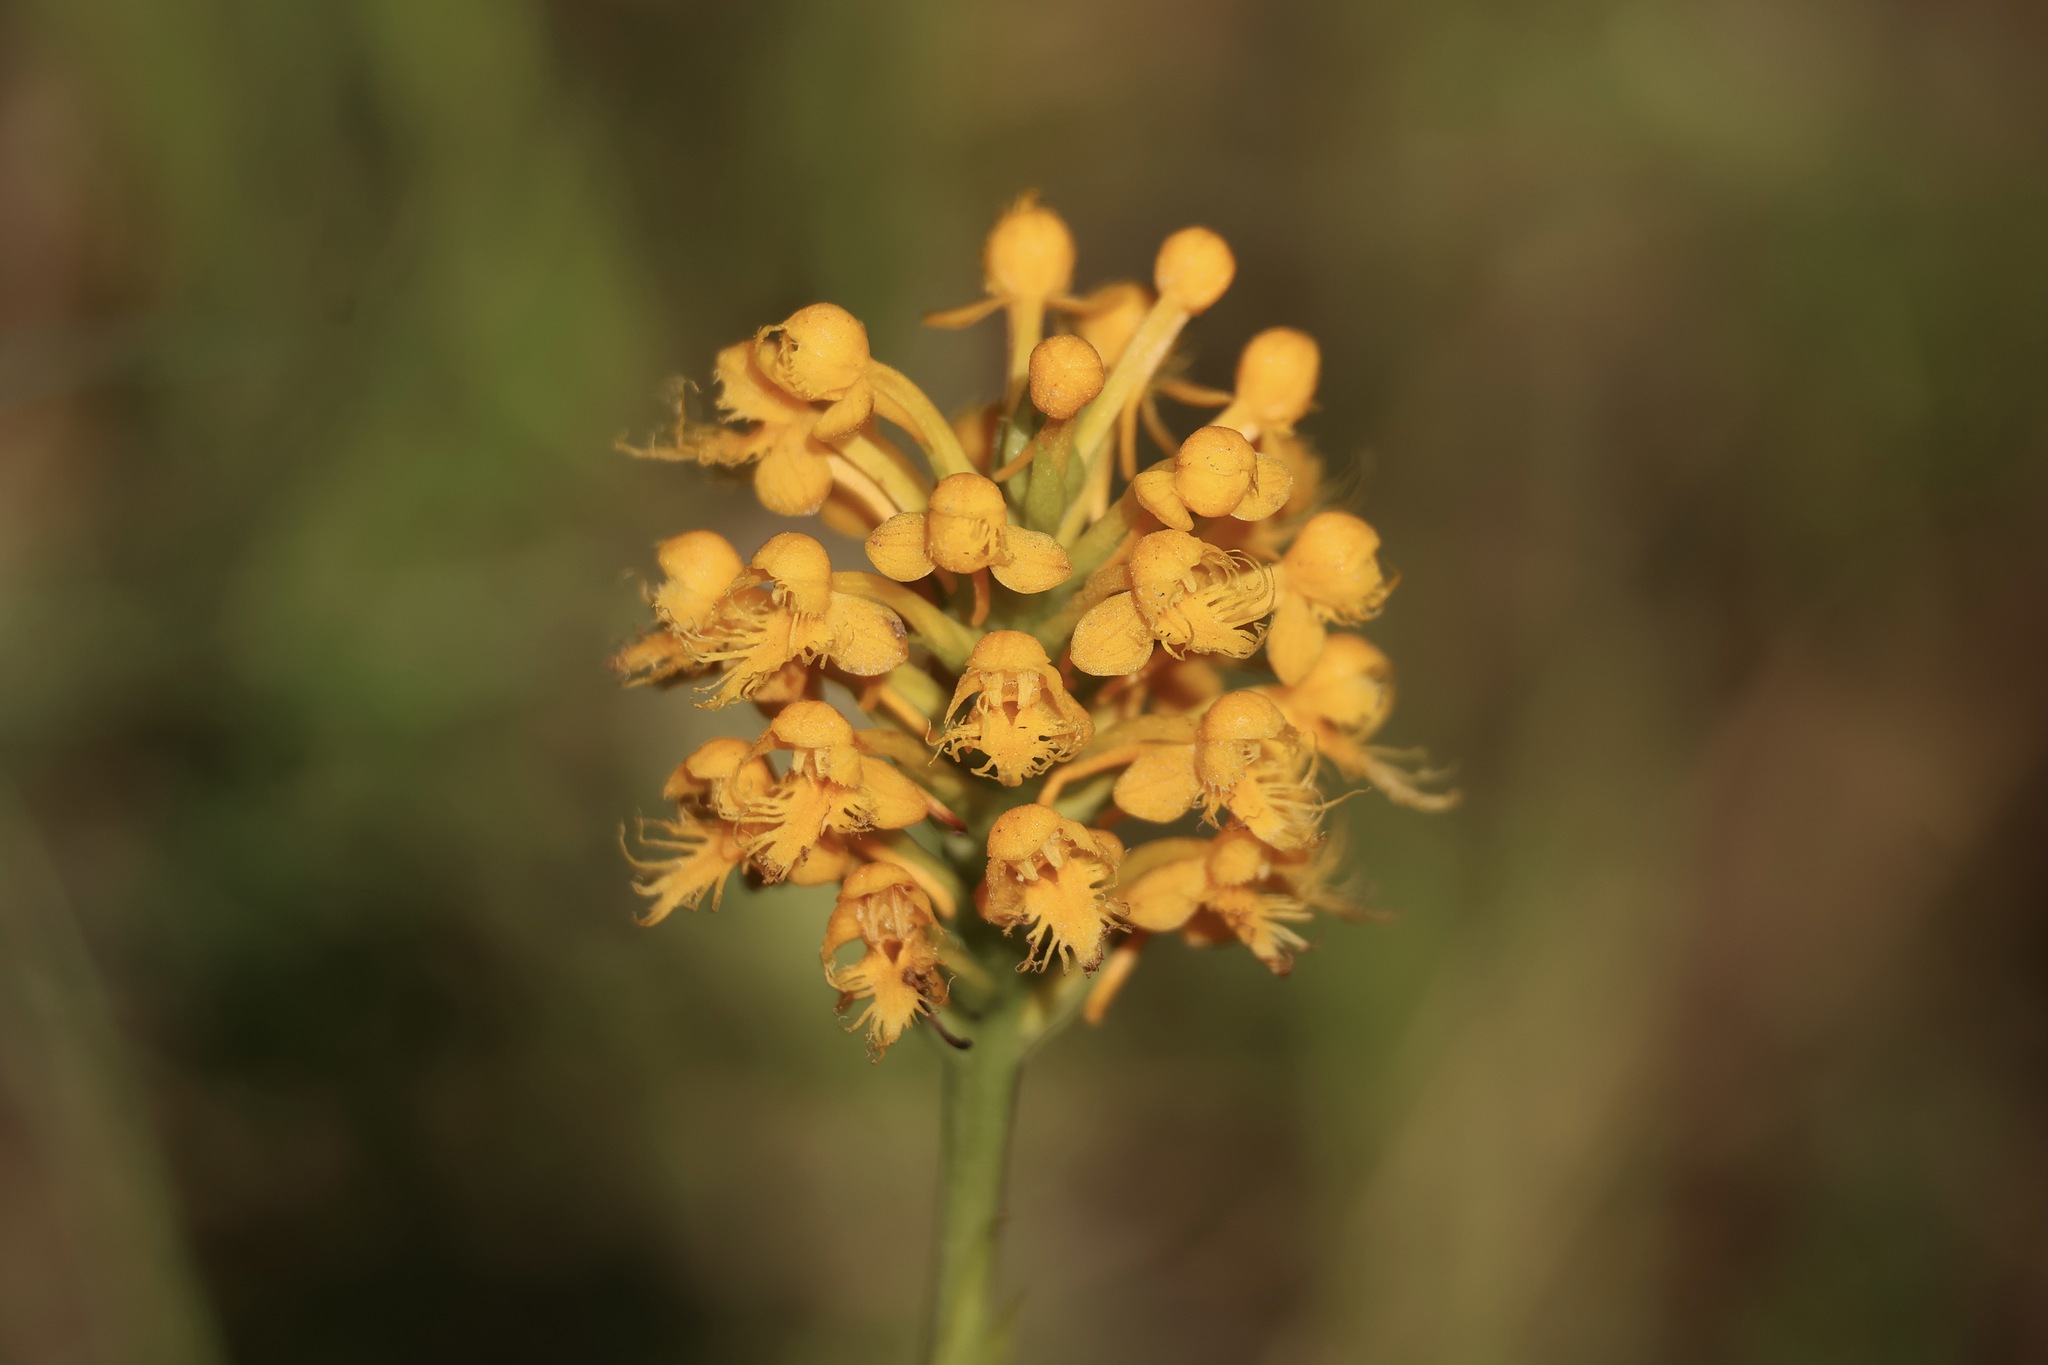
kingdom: Plantae
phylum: Tracheophyta
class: Liliopsida
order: Asparagales
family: Orchidaceae
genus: Platanthera
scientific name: Platanthera cristata
